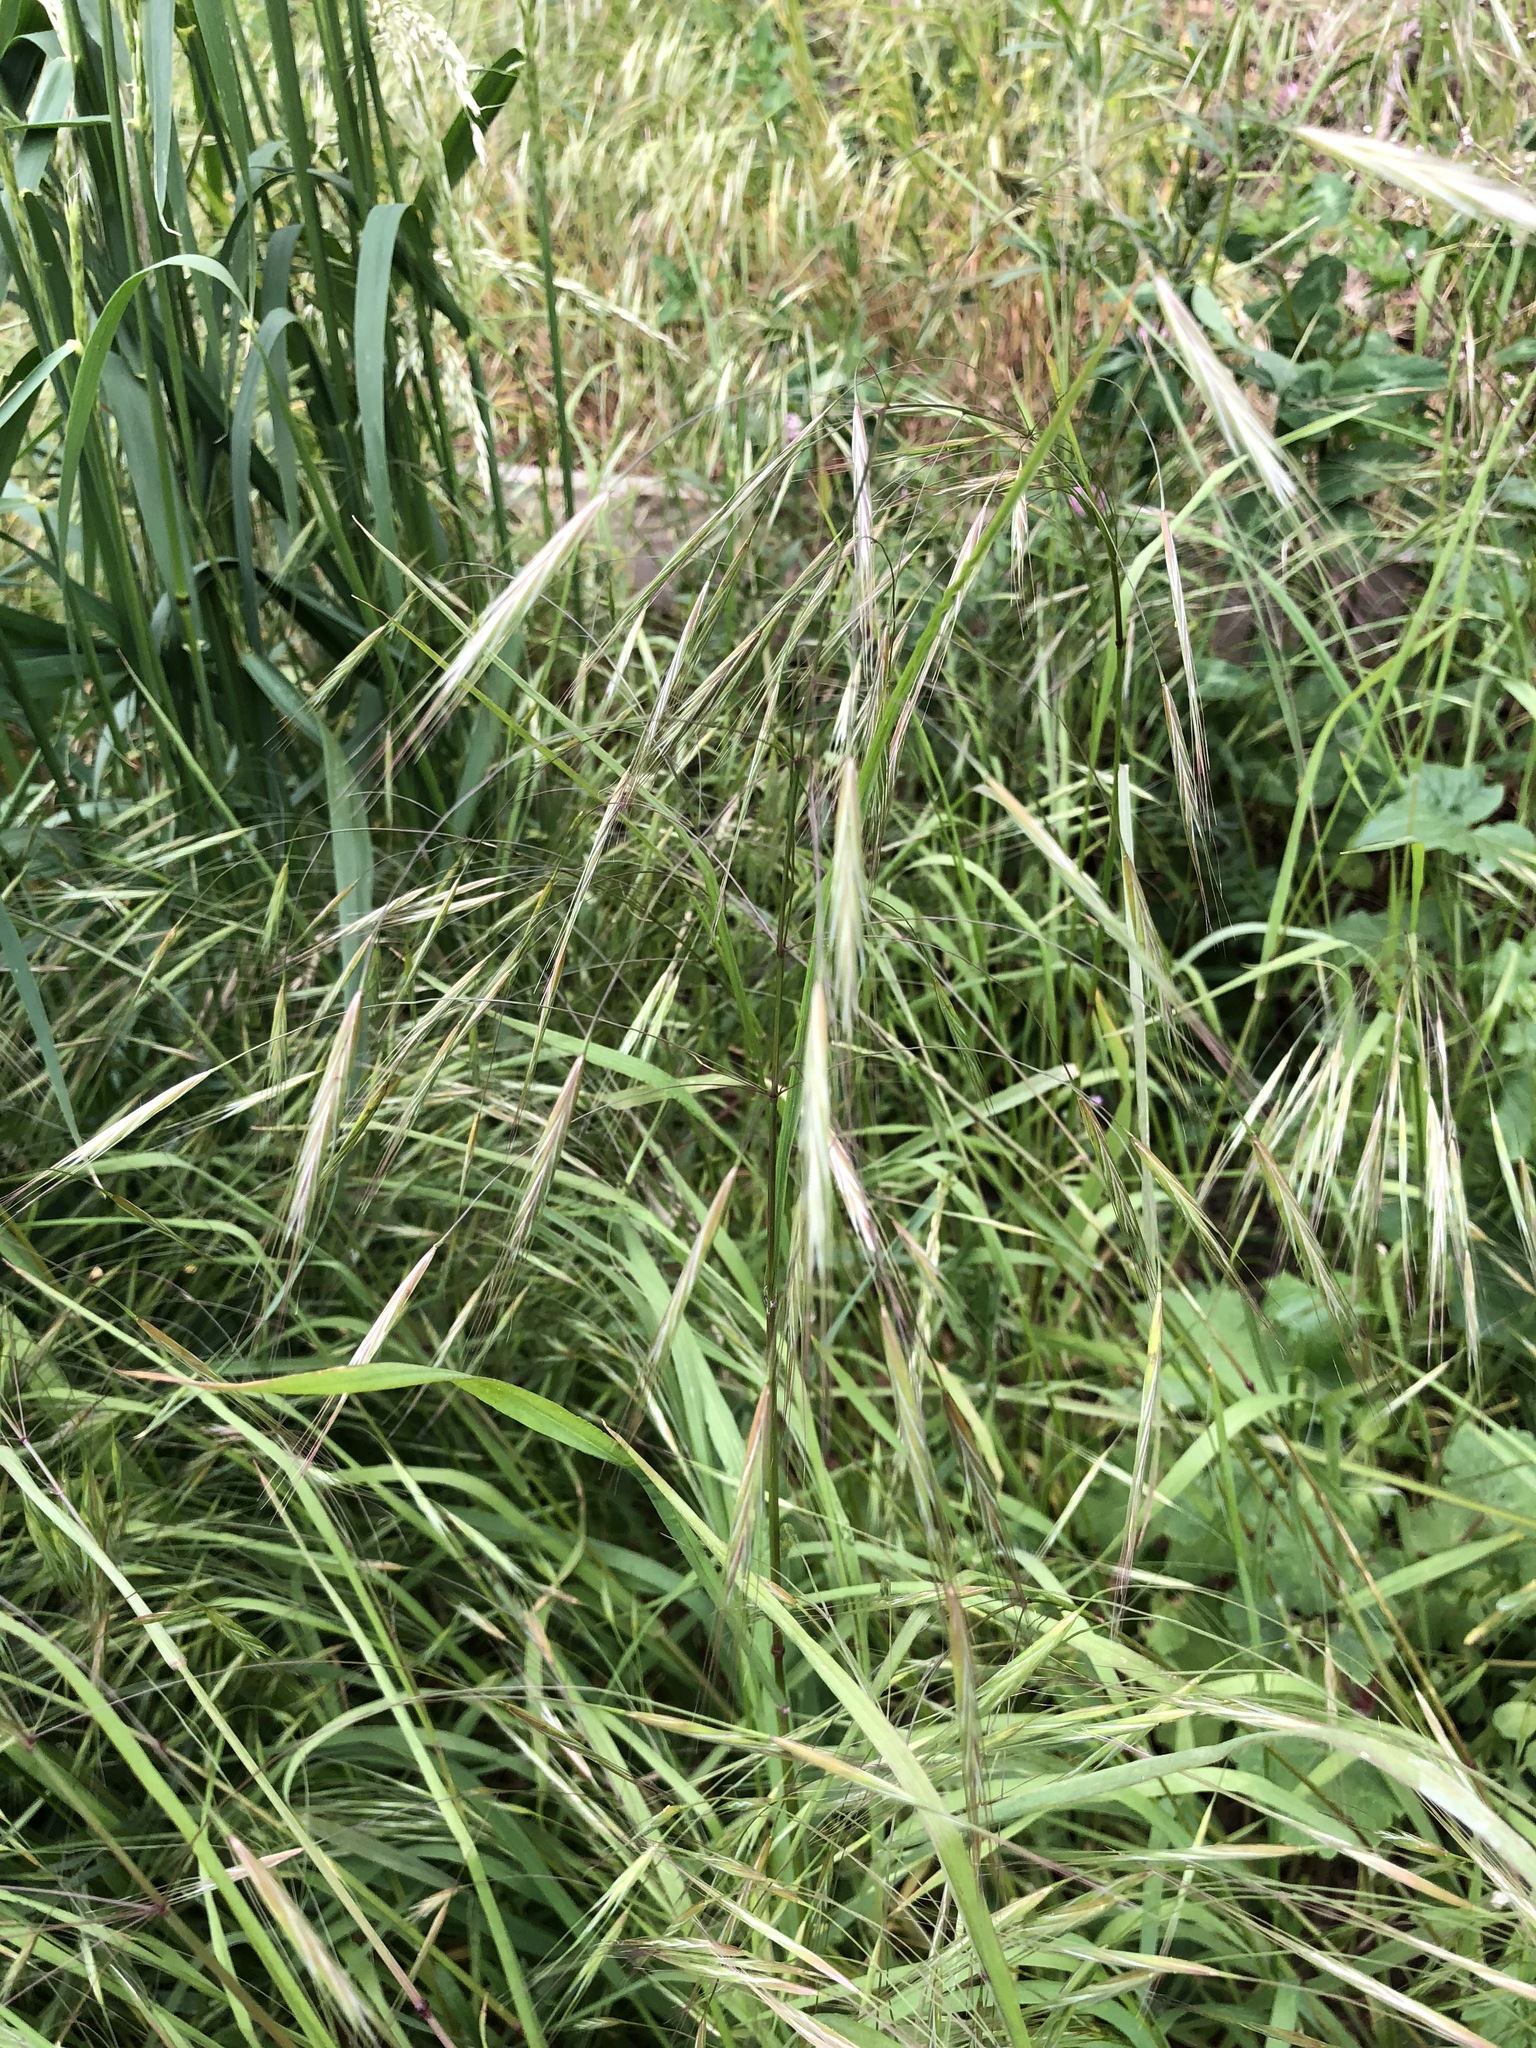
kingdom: Plantae
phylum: Tracheophyta
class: Liliopsida
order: Poales
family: Poaceae
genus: Bromus
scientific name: Bromus sterilis
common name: Poverty brome
